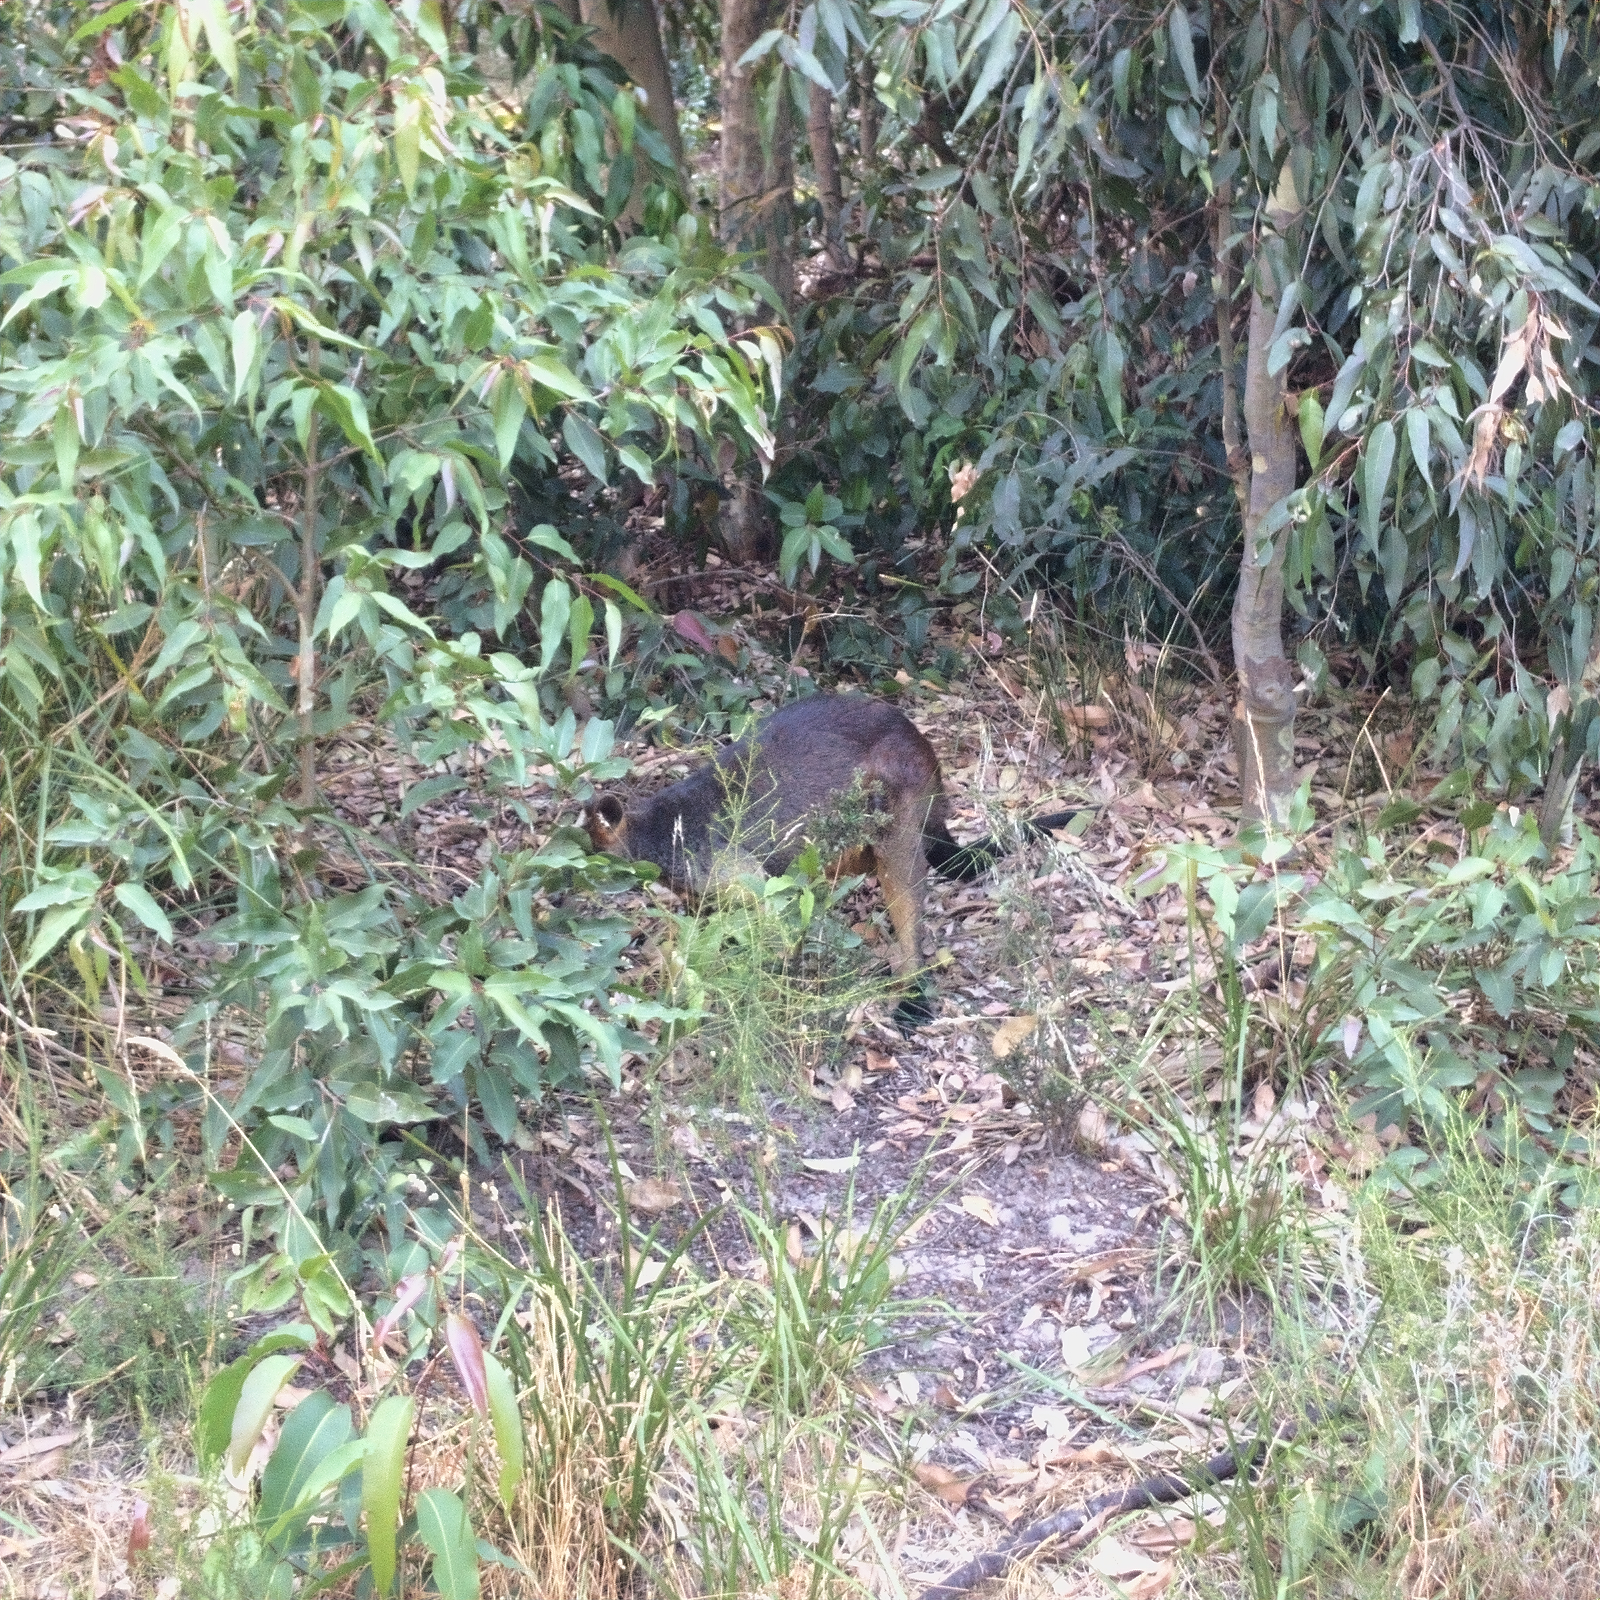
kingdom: Animalia
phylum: Chordata
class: Mammalia
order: Diprotodontia
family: Macropodidae
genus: Wallabia
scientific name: Wallabia bicolor
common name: Swamp wallaby
